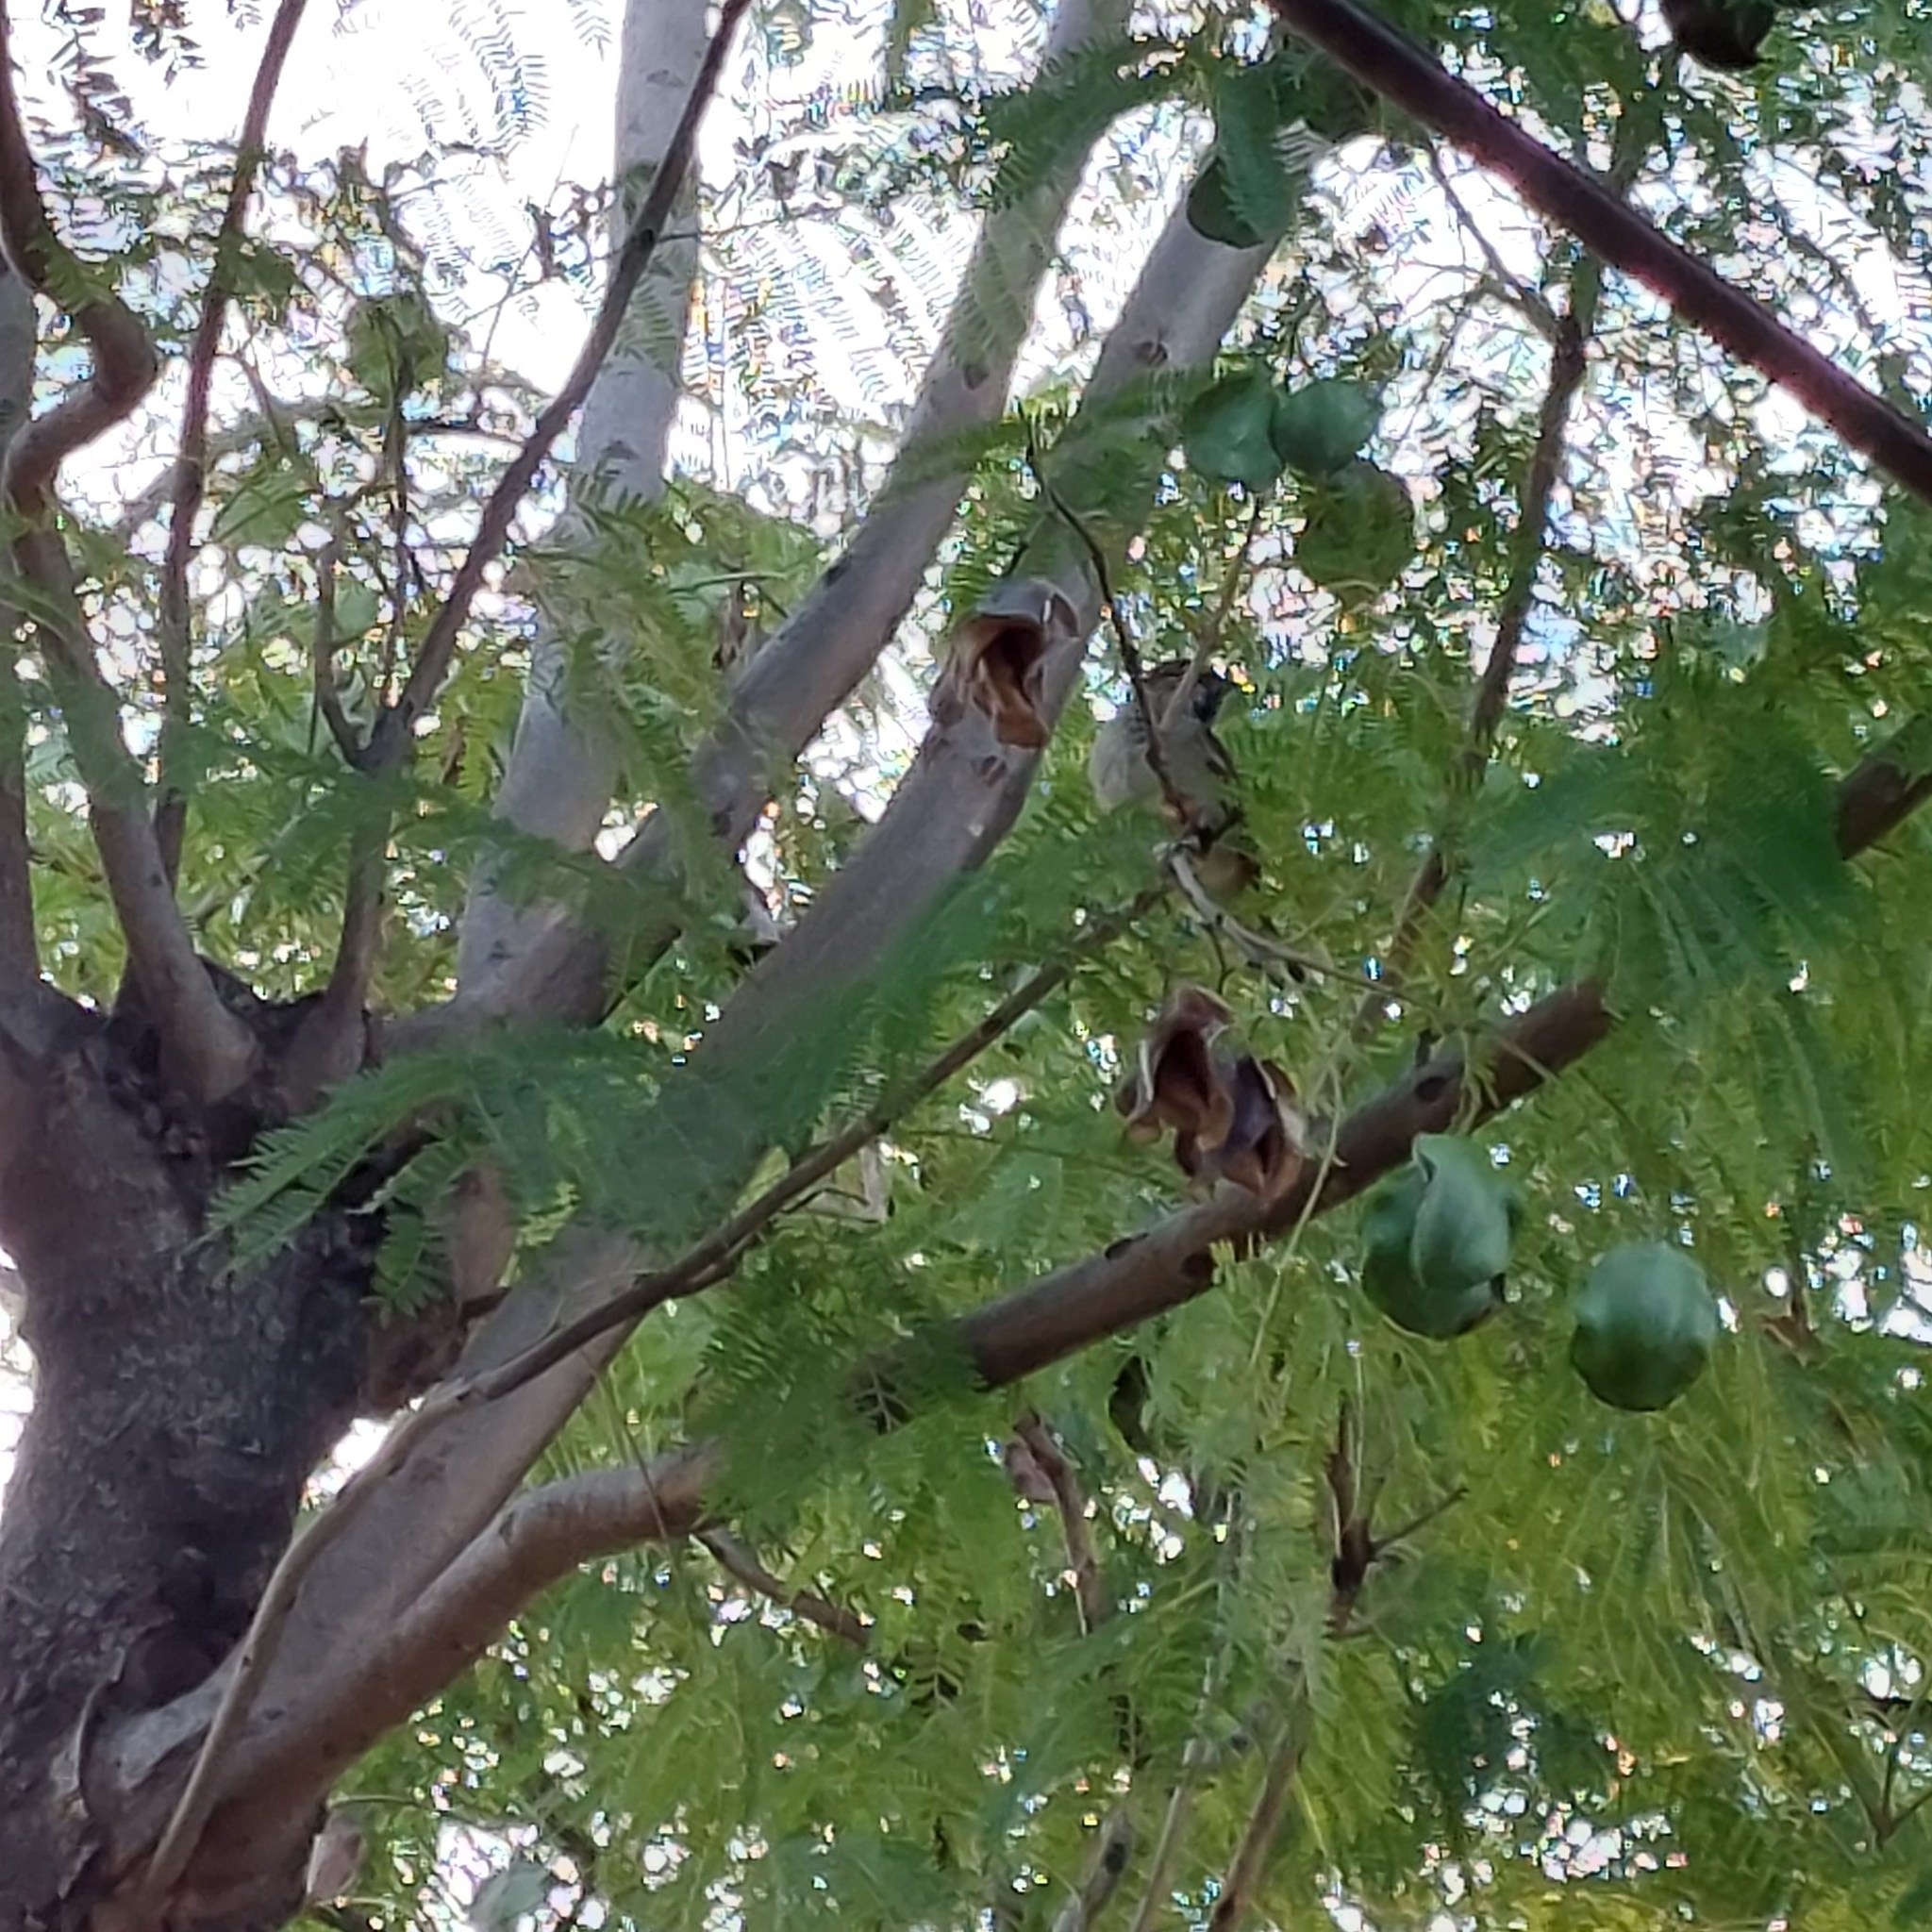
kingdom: Animalia
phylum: Chordata
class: Aves
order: Passeriformes
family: Passeridae
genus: Passer
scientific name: Passer domesticus
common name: House sparrow
